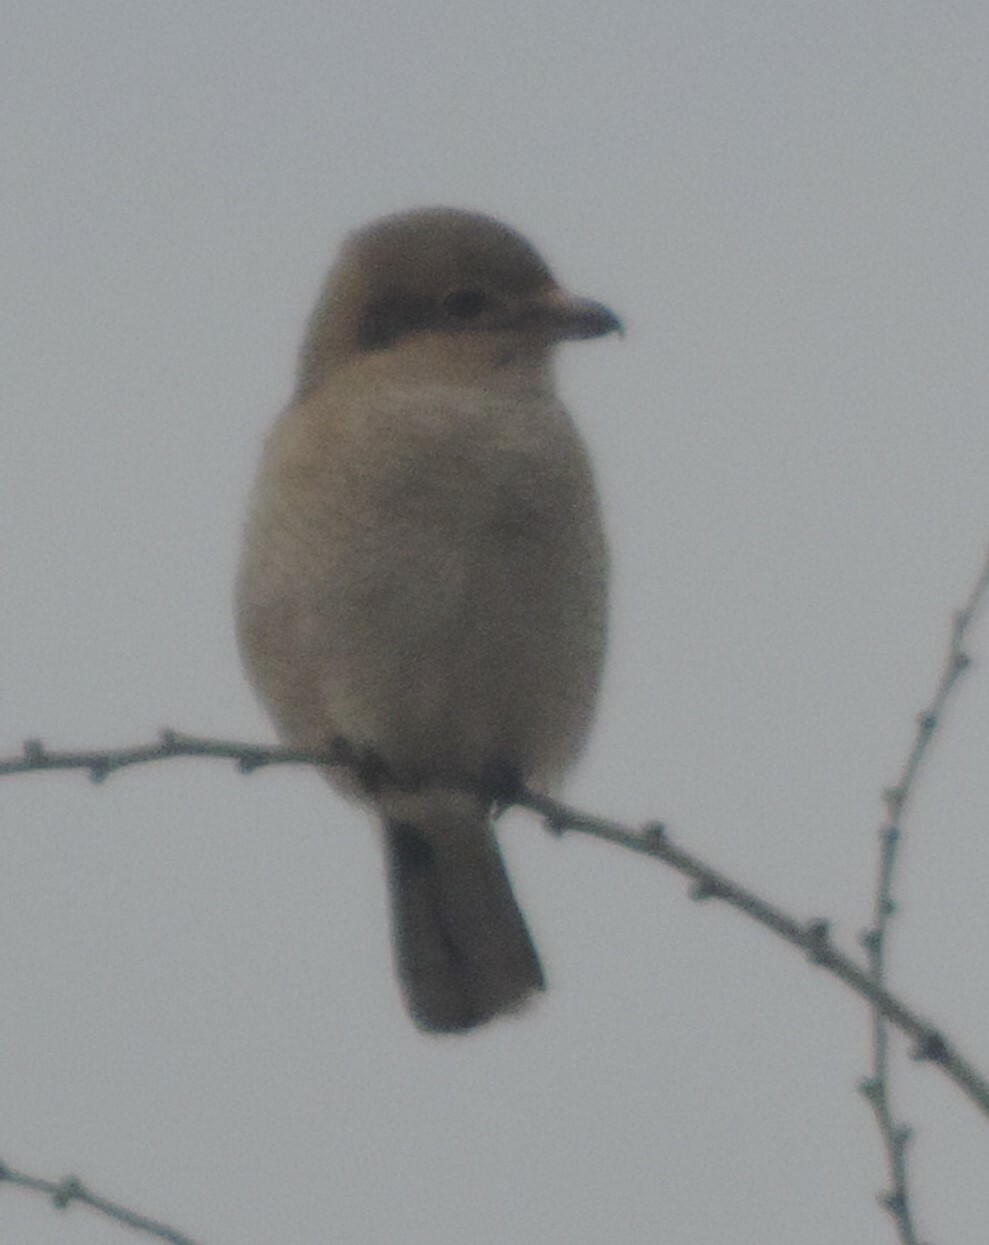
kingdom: Animalia
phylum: Chordata
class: Aves
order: Passeriformes
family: Laniidae
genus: Lanius
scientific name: Lanius borealis
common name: Northern shrike
